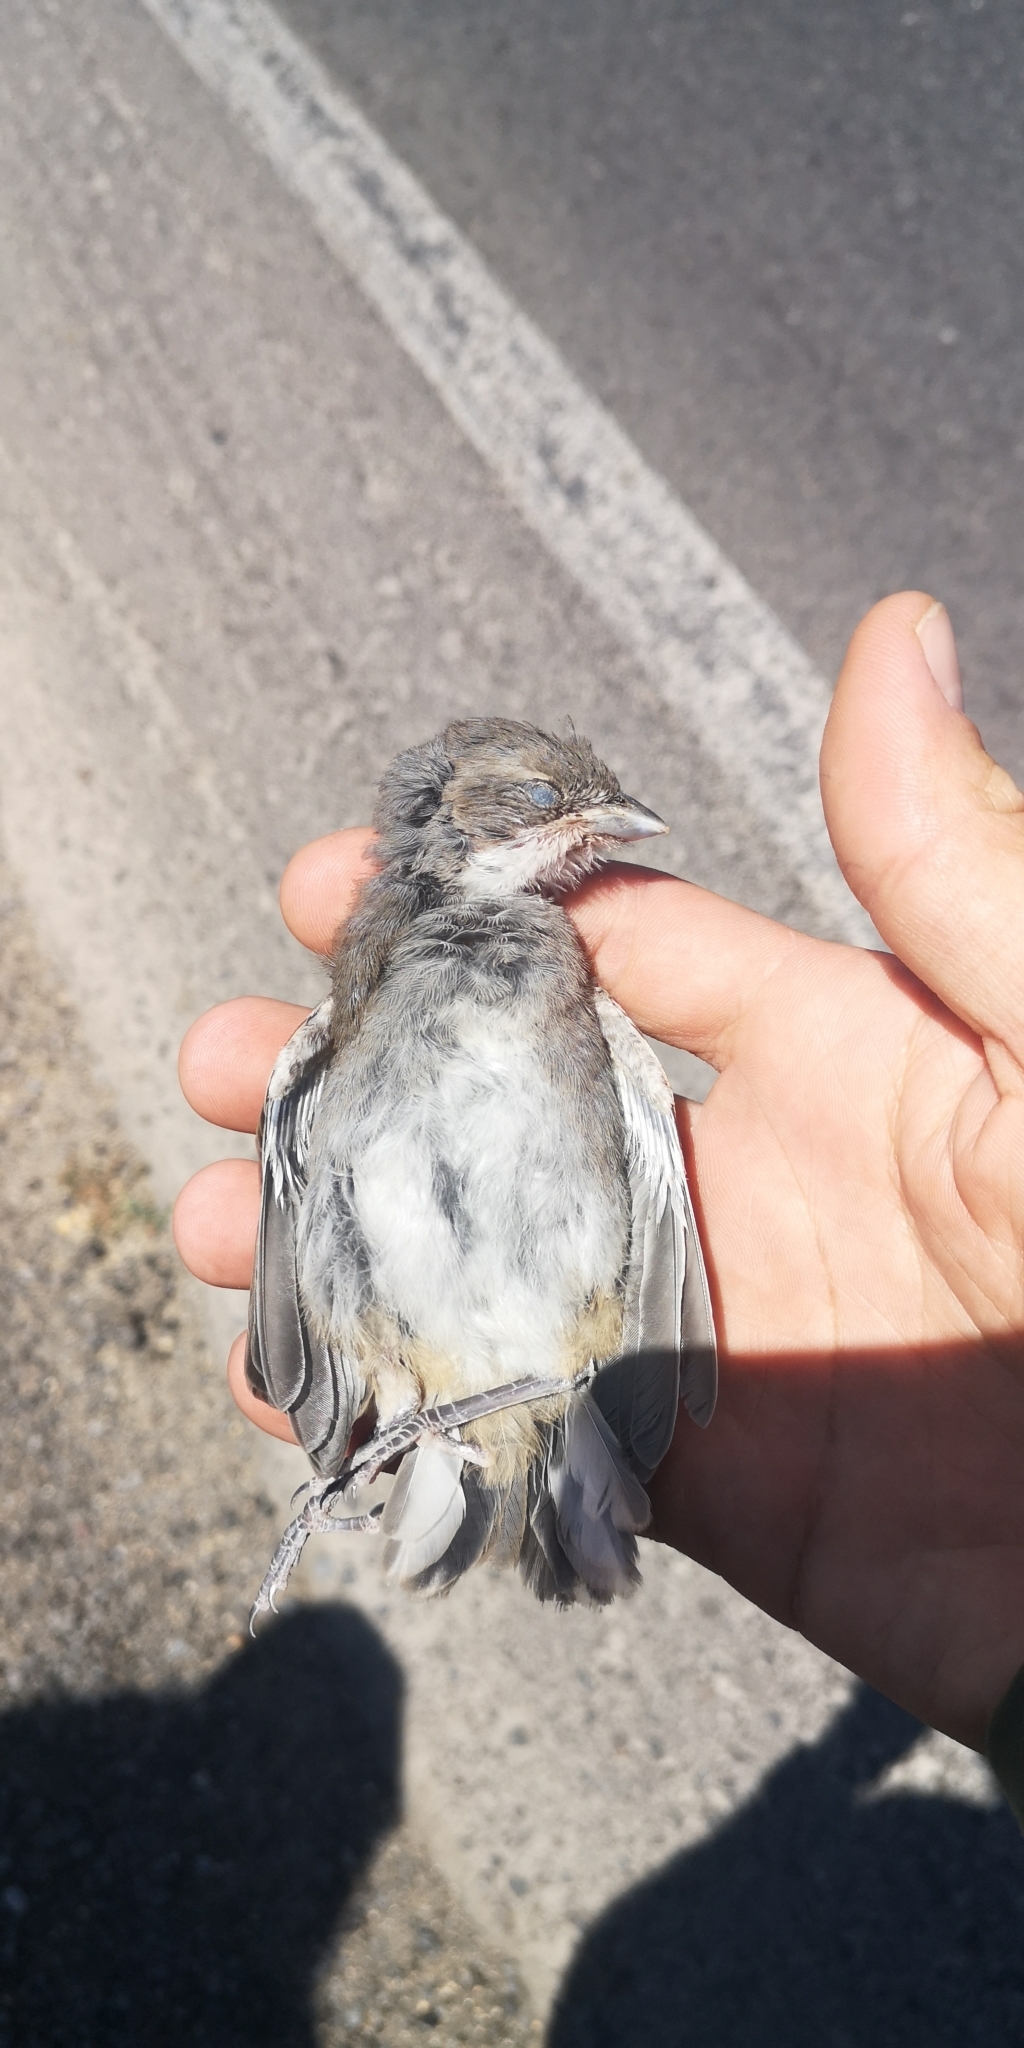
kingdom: Animalia
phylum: Chordata
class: Aves
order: Passeriformes
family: Thraupidae
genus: Diuca
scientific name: Diuca diuca
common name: Common diuca finch
